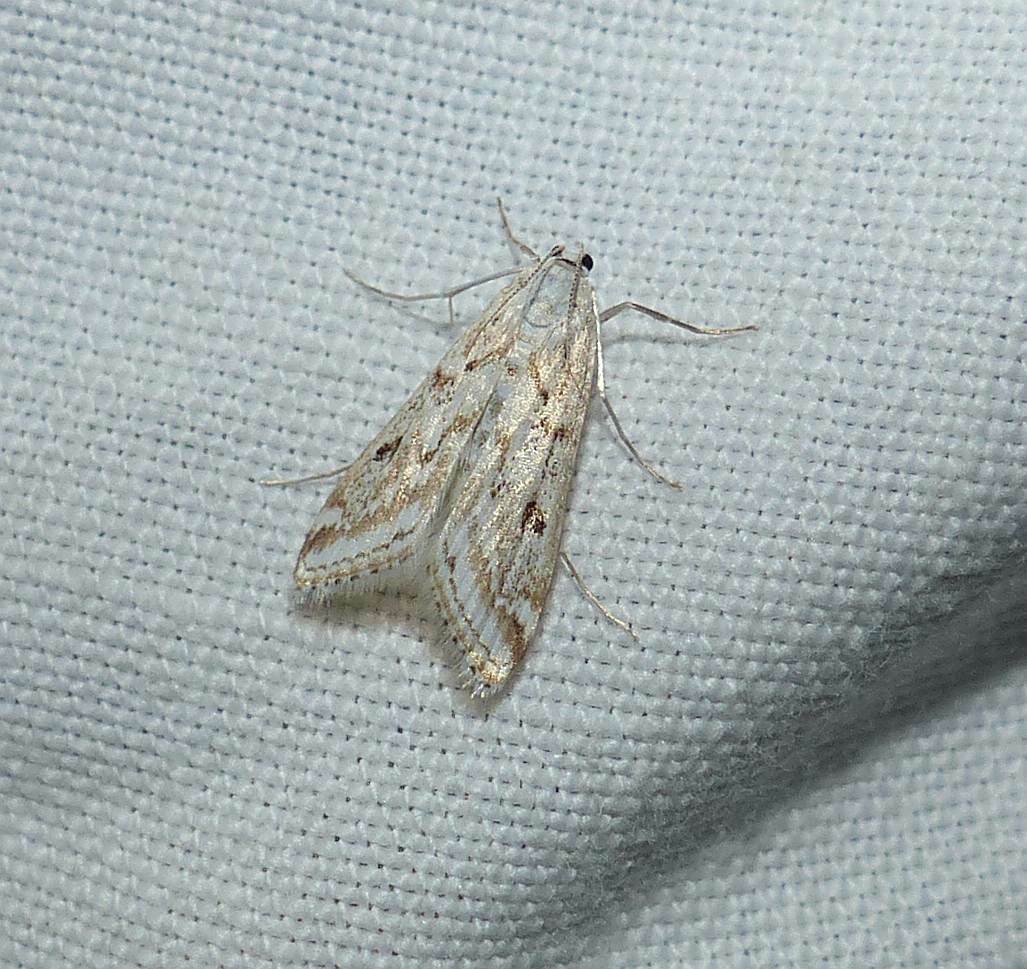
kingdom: Animalia
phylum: Arthropoda
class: Insecta
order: Lepidoptera
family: Crambidae
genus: Parapoynx
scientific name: Parapoynx allionealis
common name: Bladderwort casemaker
